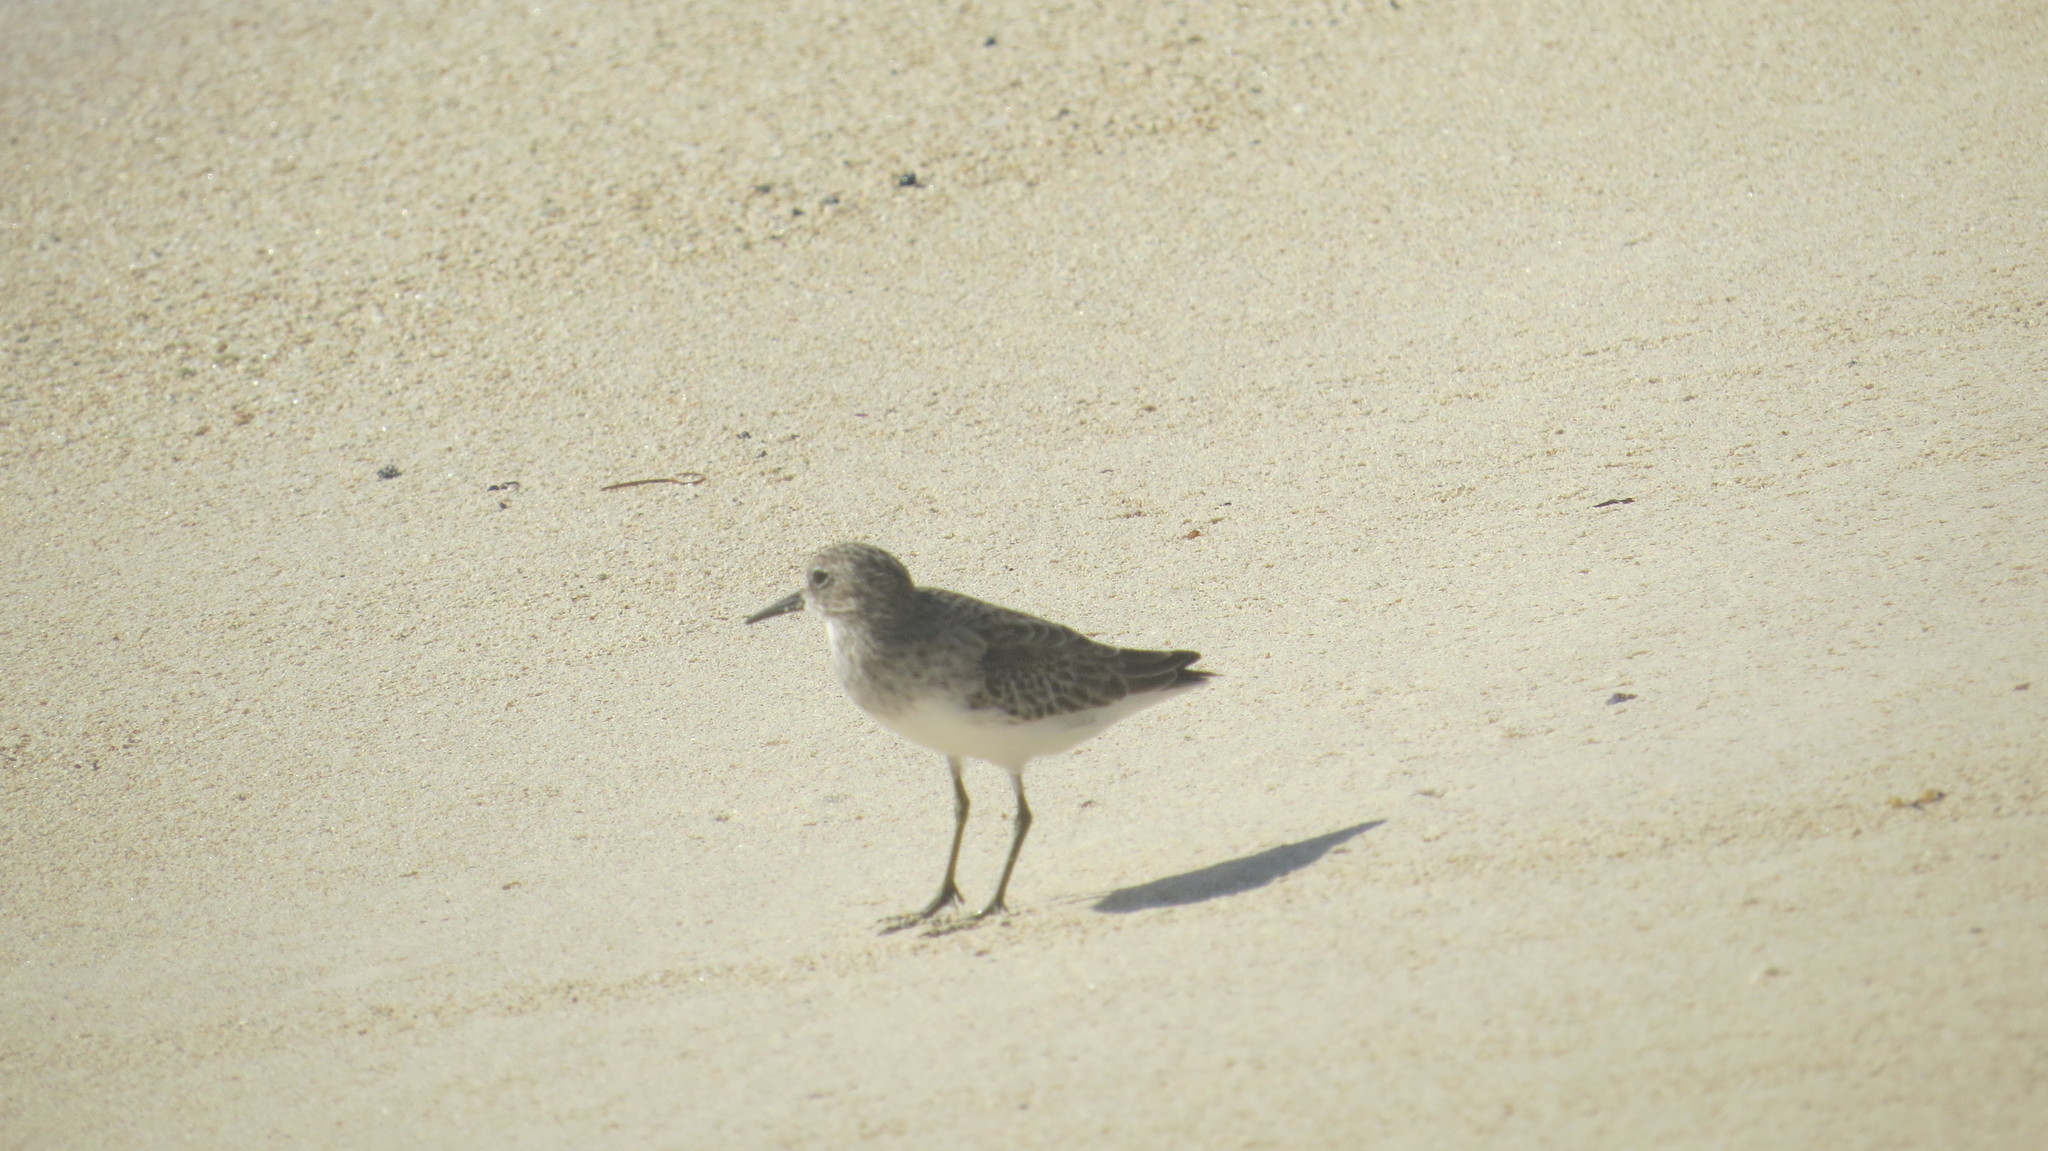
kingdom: Animalia
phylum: Chordata
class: Aves
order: Charadriiformes
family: Scolopacidae
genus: Calidris
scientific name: Calidris minutilla
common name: Least sandpiper
